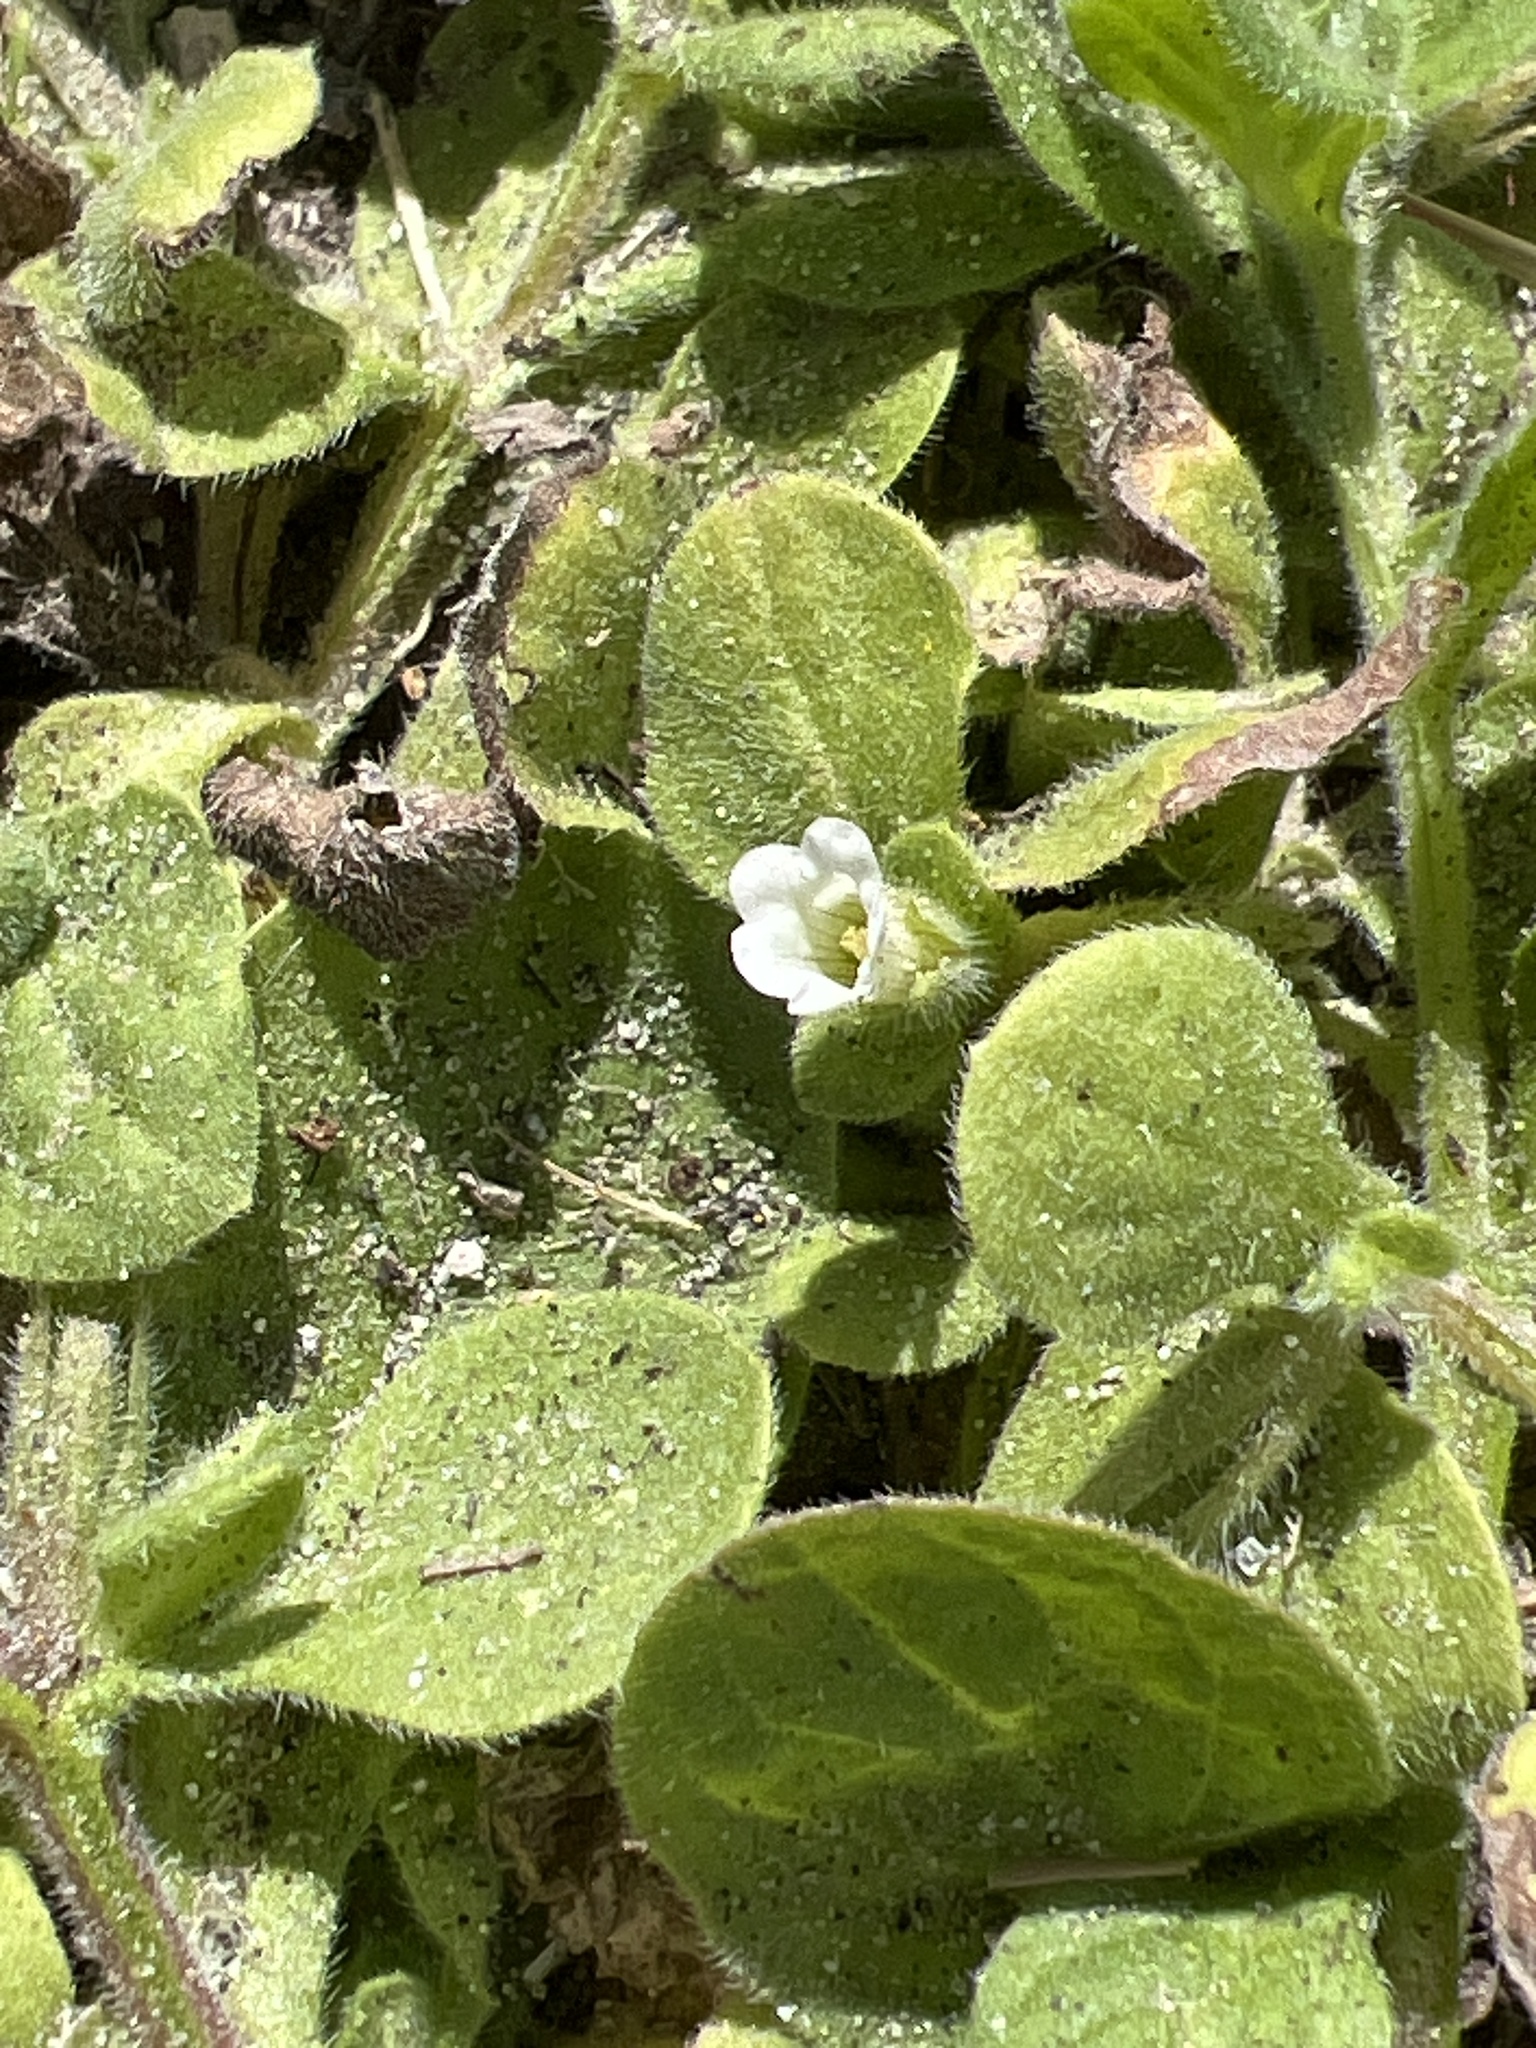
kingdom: Plantae
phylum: Tracheophyta
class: Magnoliopsida
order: Boraginales
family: Namaceae
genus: Nama
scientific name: Nama jamaicensis
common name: Jamaicanweed
